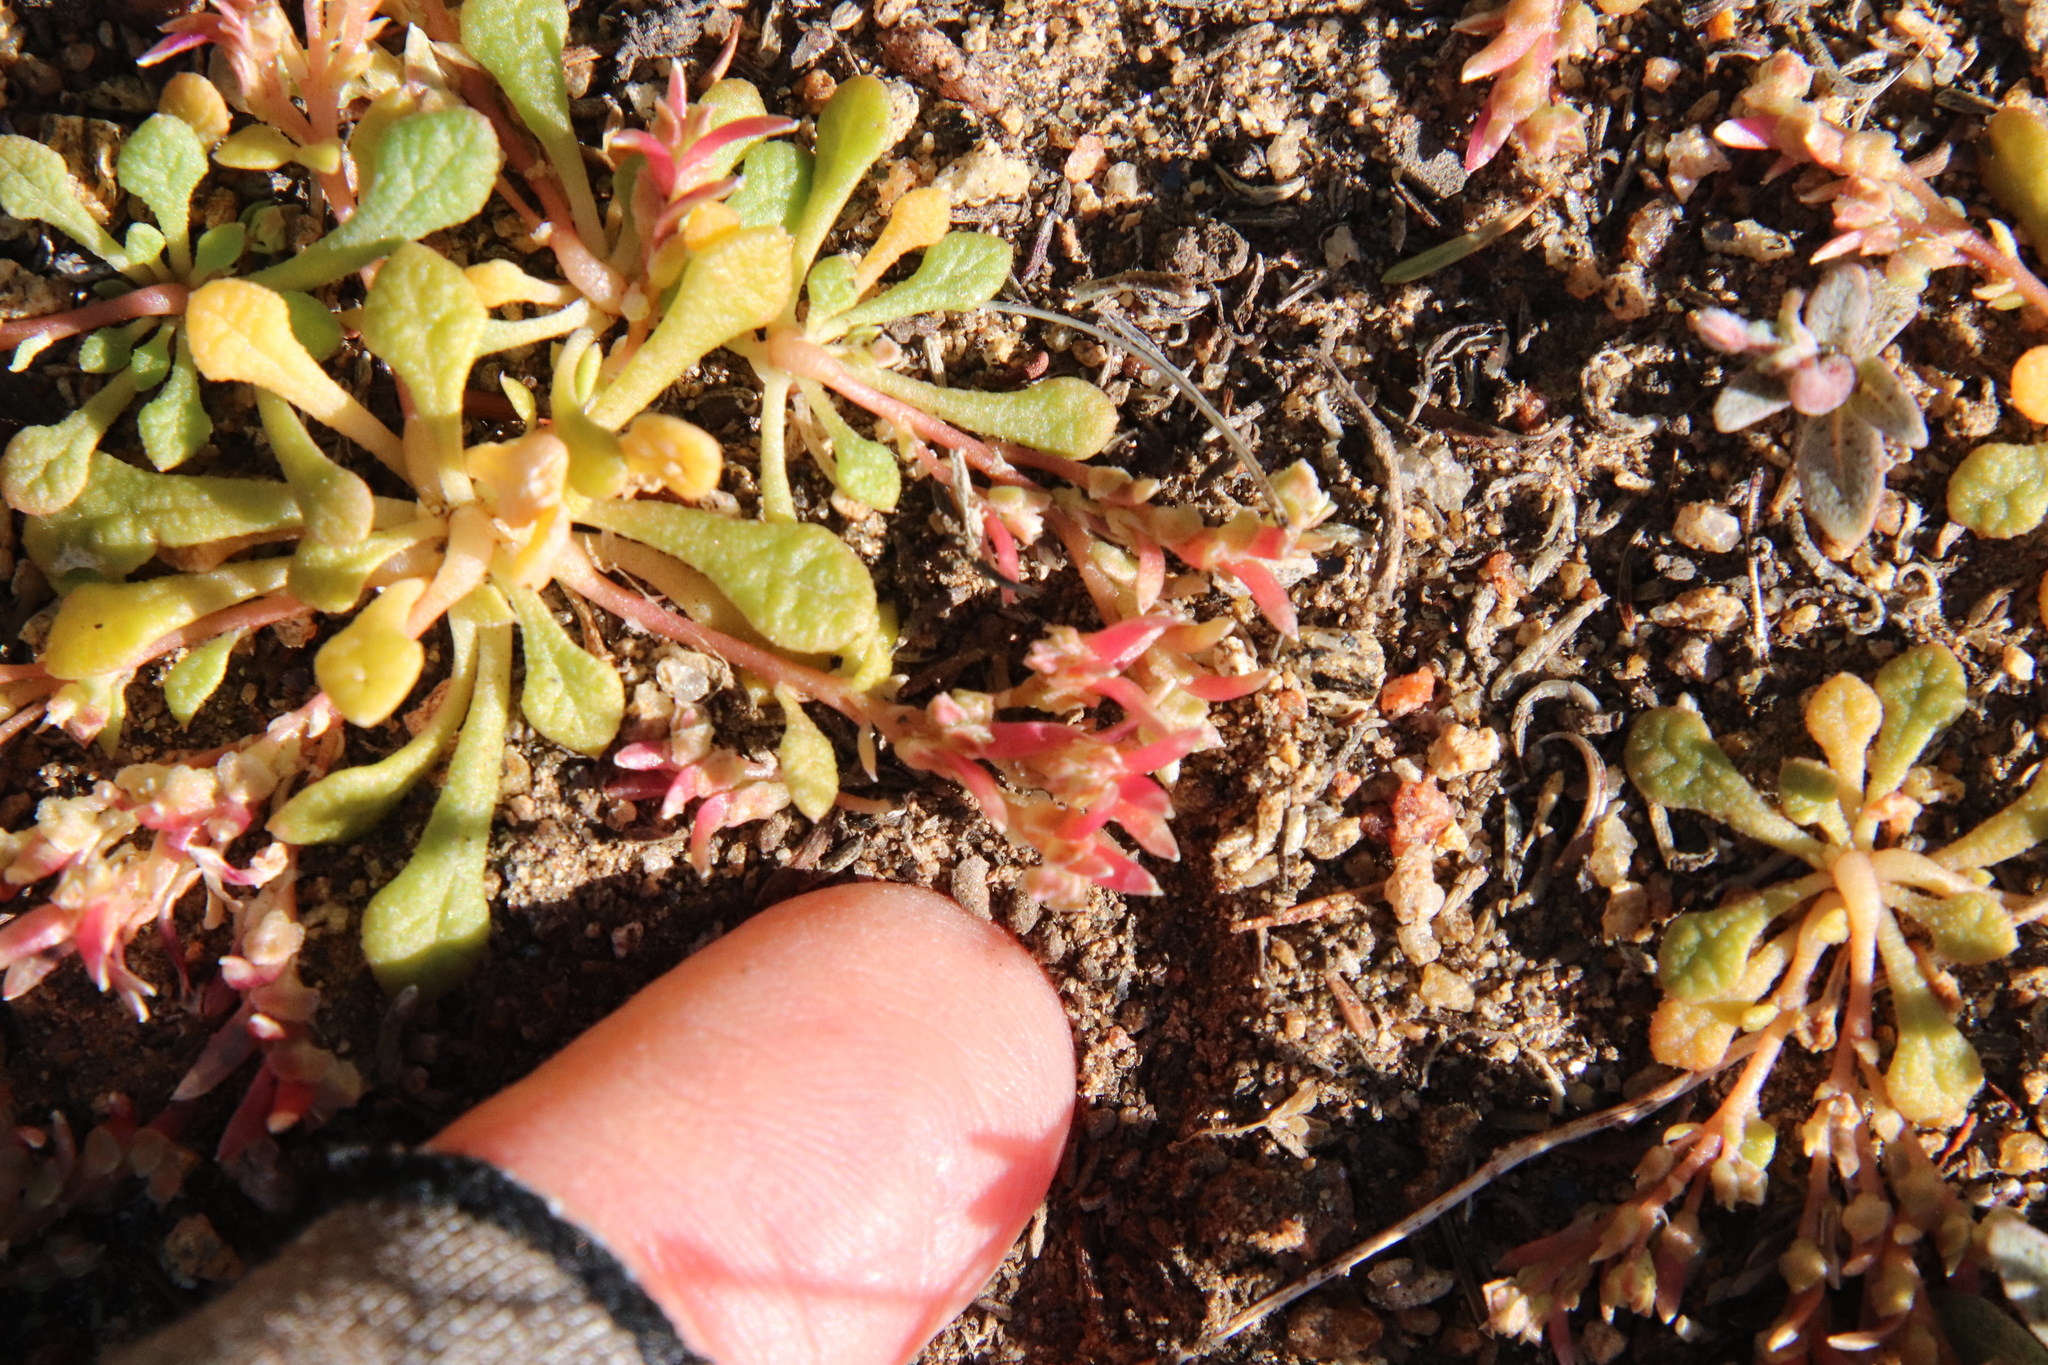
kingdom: Plantae
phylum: Tracheophyta
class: Magnoliopsida
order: Caryophyllales
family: Montiaceae
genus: Calyptridium
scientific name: Calyptridium monandrum
